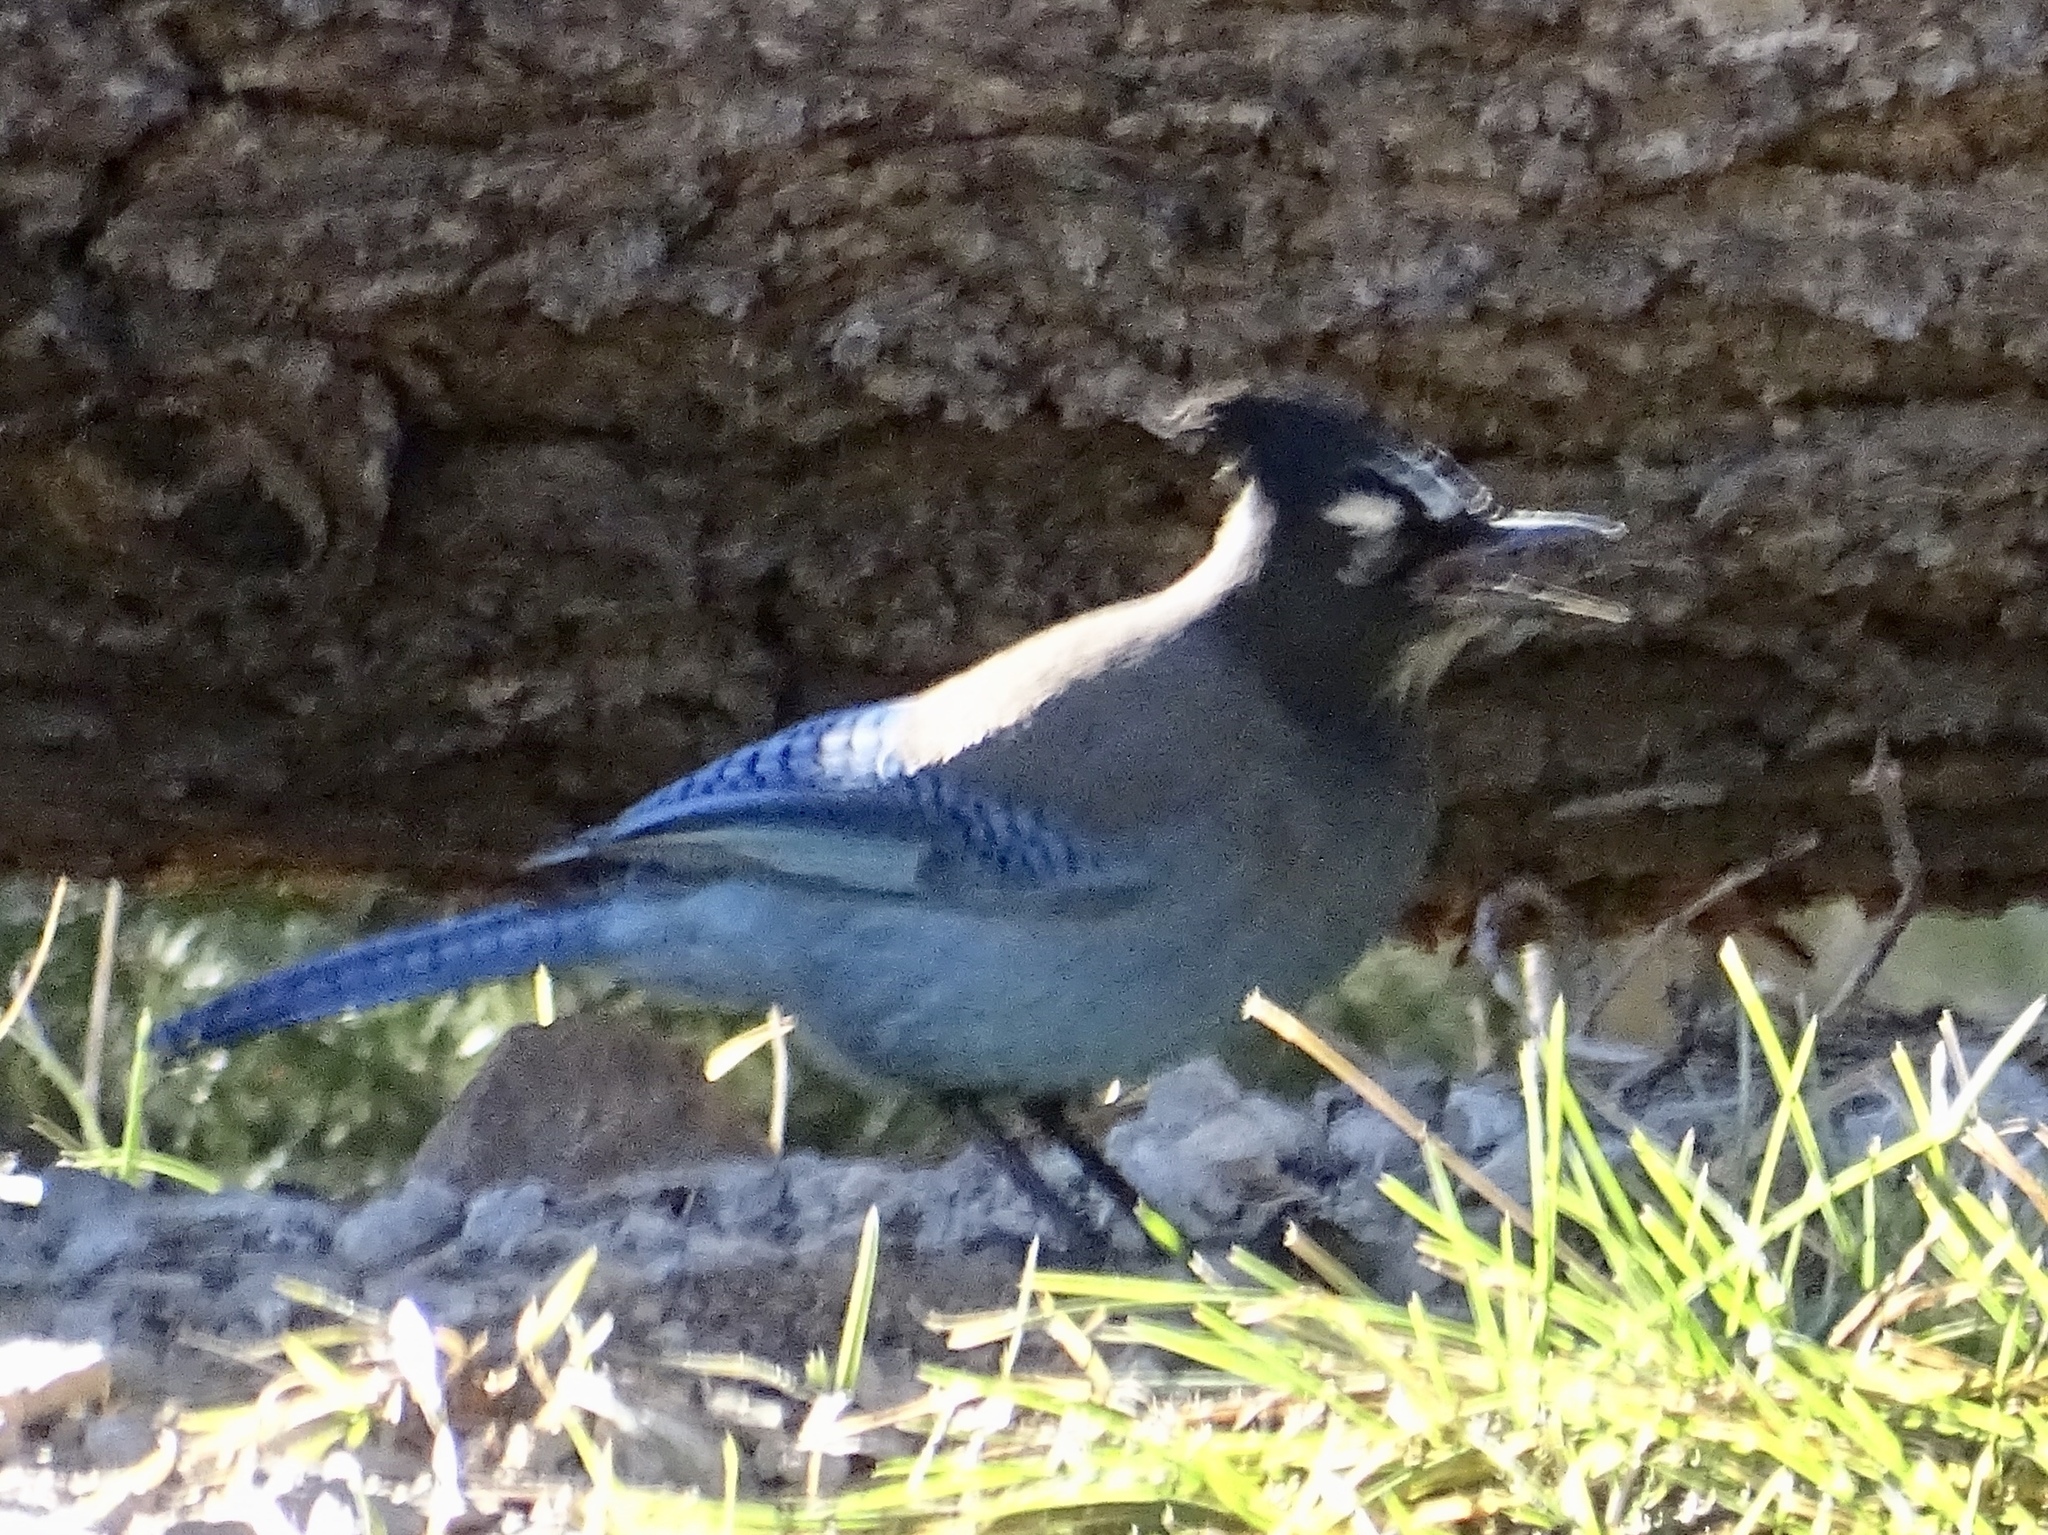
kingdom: Animalia
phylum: Chordata
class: Aves
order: Passeriformes
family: Corvidae
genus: Cyanocitta
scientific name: Cyanocitta stelleri
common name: Steller's jay
